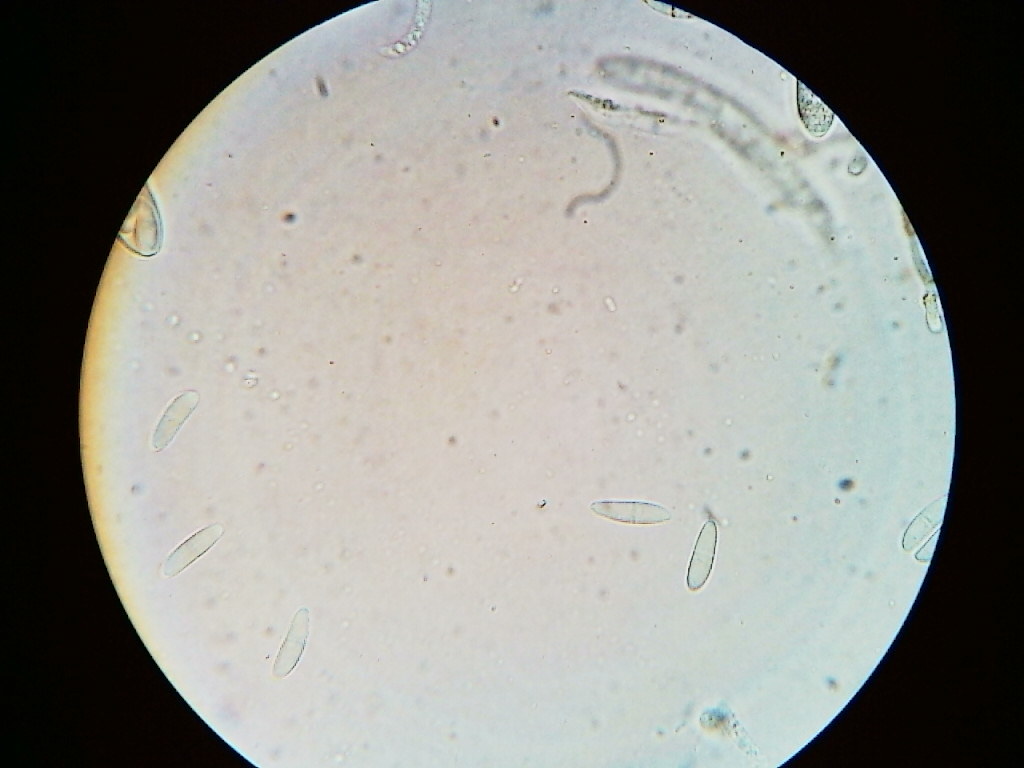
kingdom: Fungi
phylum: Ascomycota
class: Leotiomycetes
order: Helotiales
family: Arachnopezizaceae
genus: Arachnopeziza
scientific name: Arachnopeziza trabinelloides
